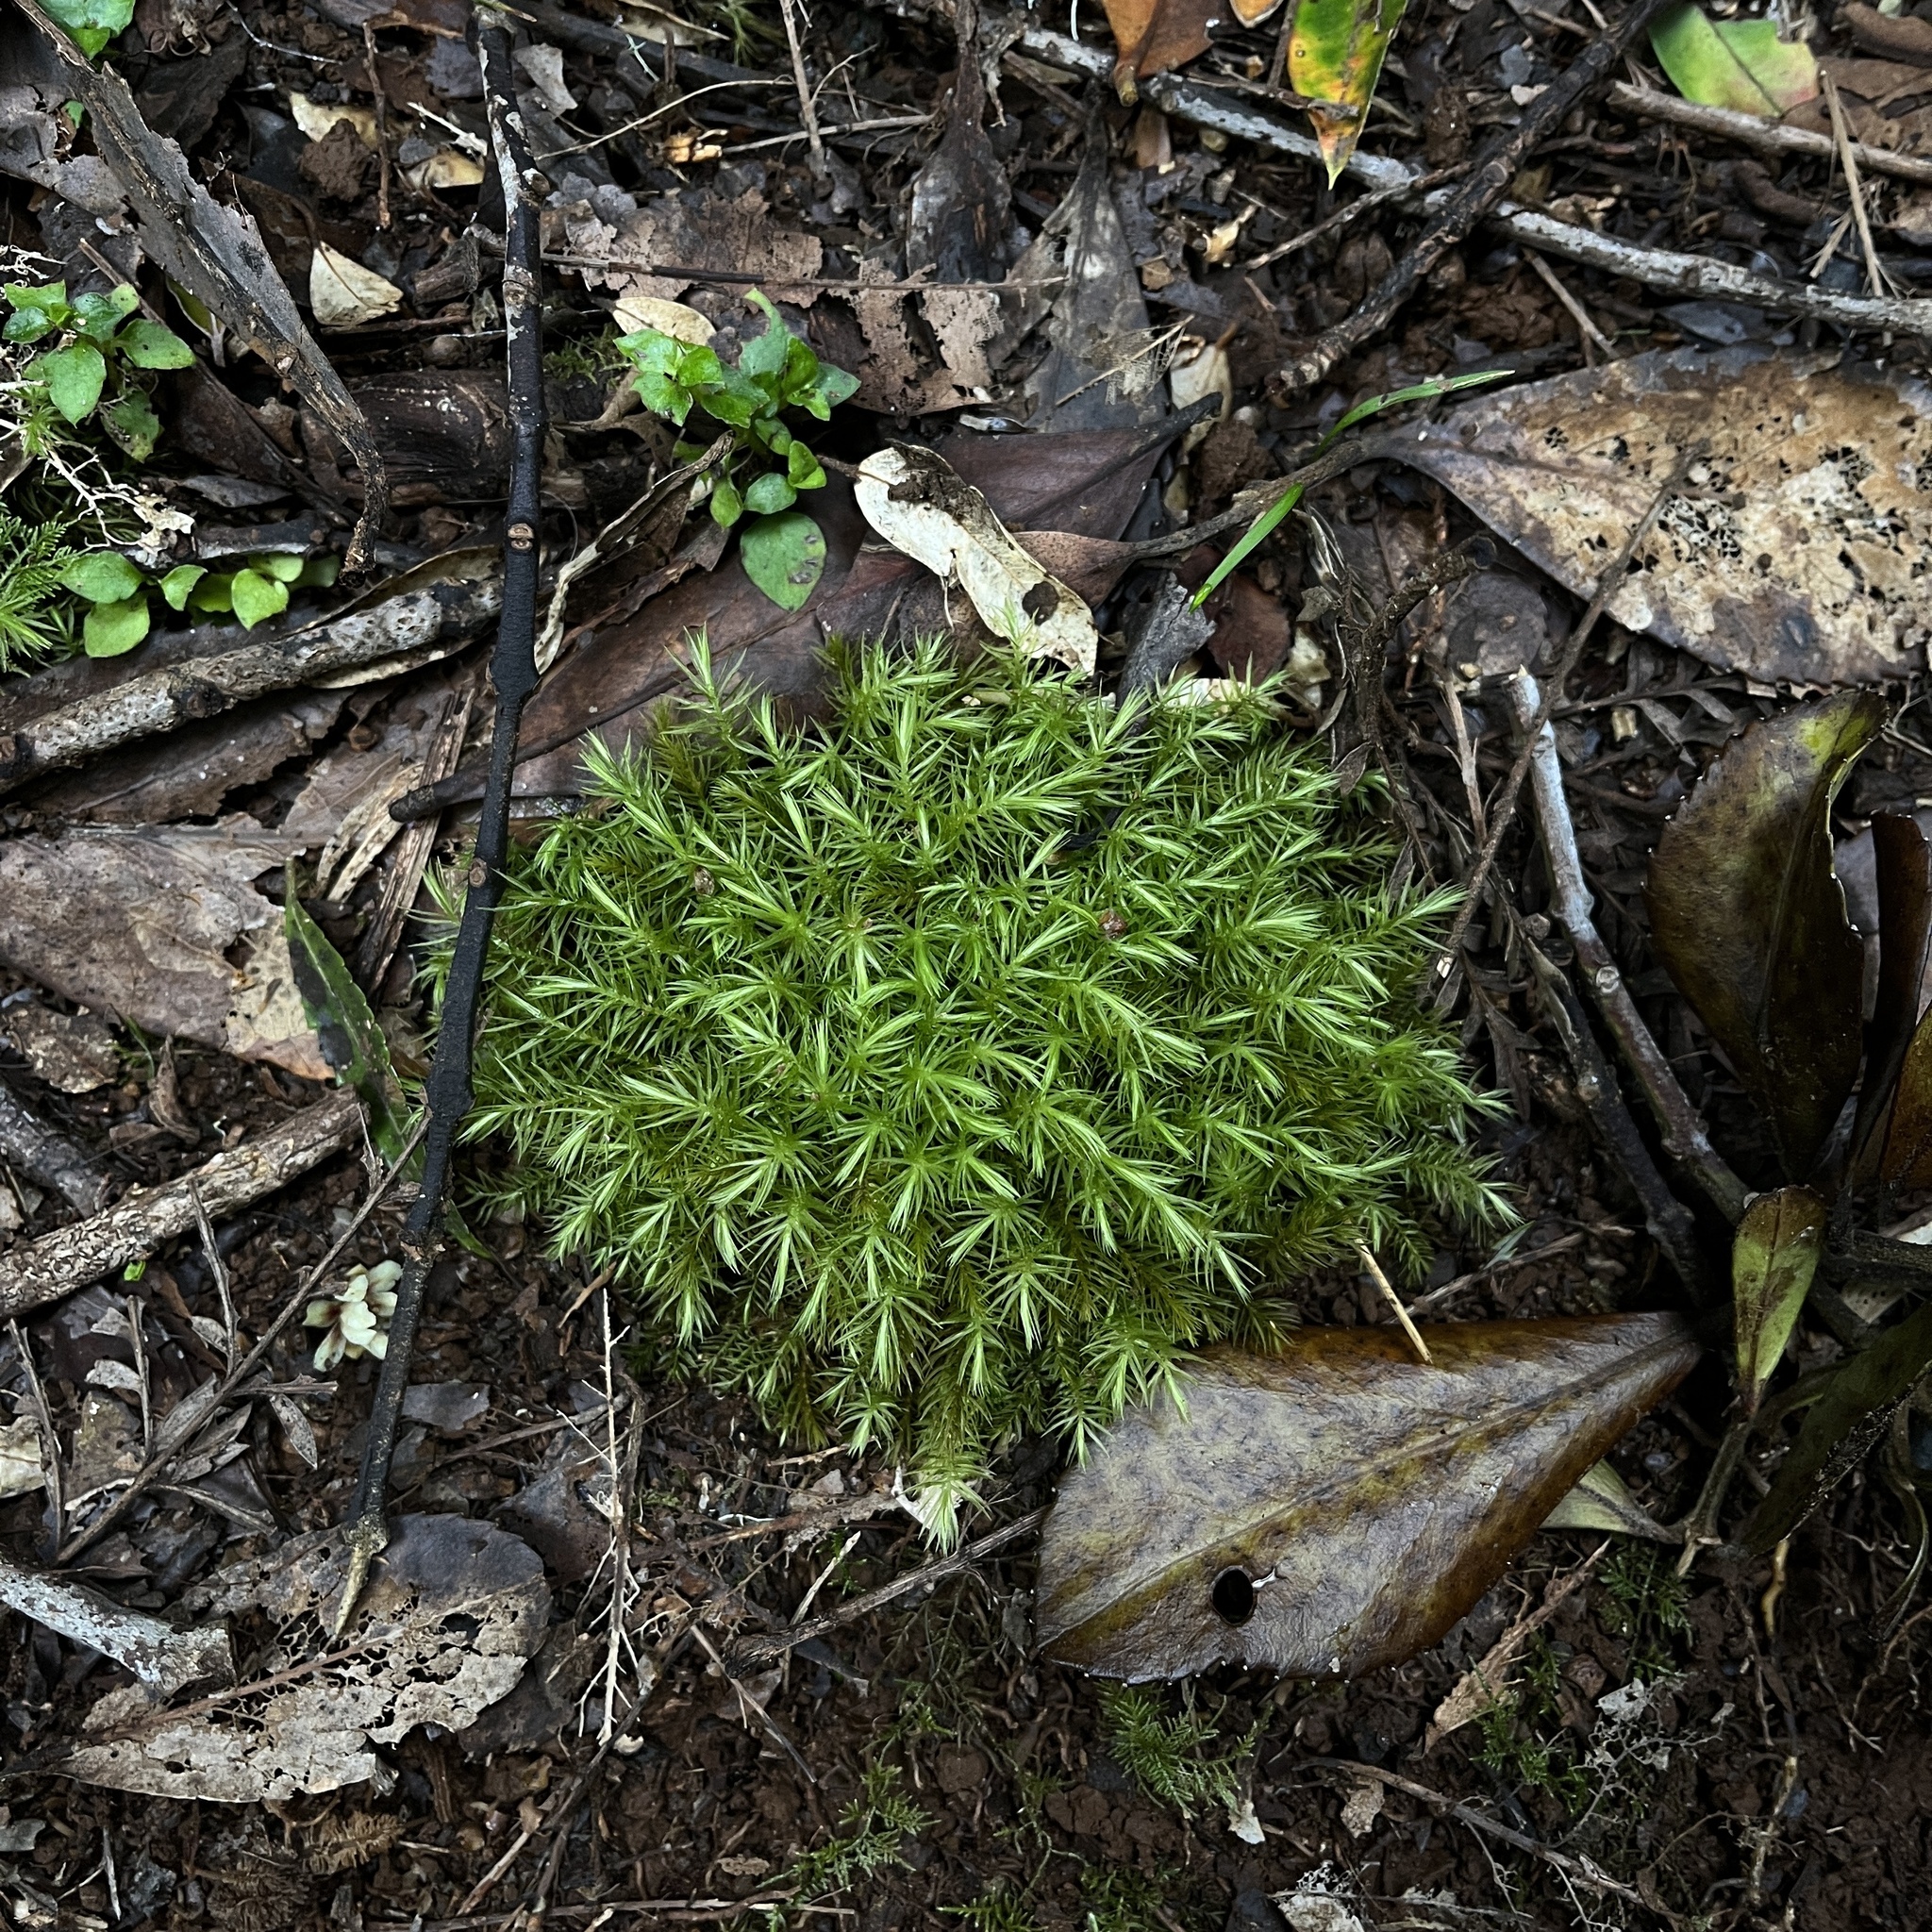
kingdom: Plantae
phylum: Bryophyta
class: Bryopsida
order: Aulacomniales
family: Aulacomniaceae
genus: Hymenodontopsis
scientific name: Hymenodontopsis mnioides
